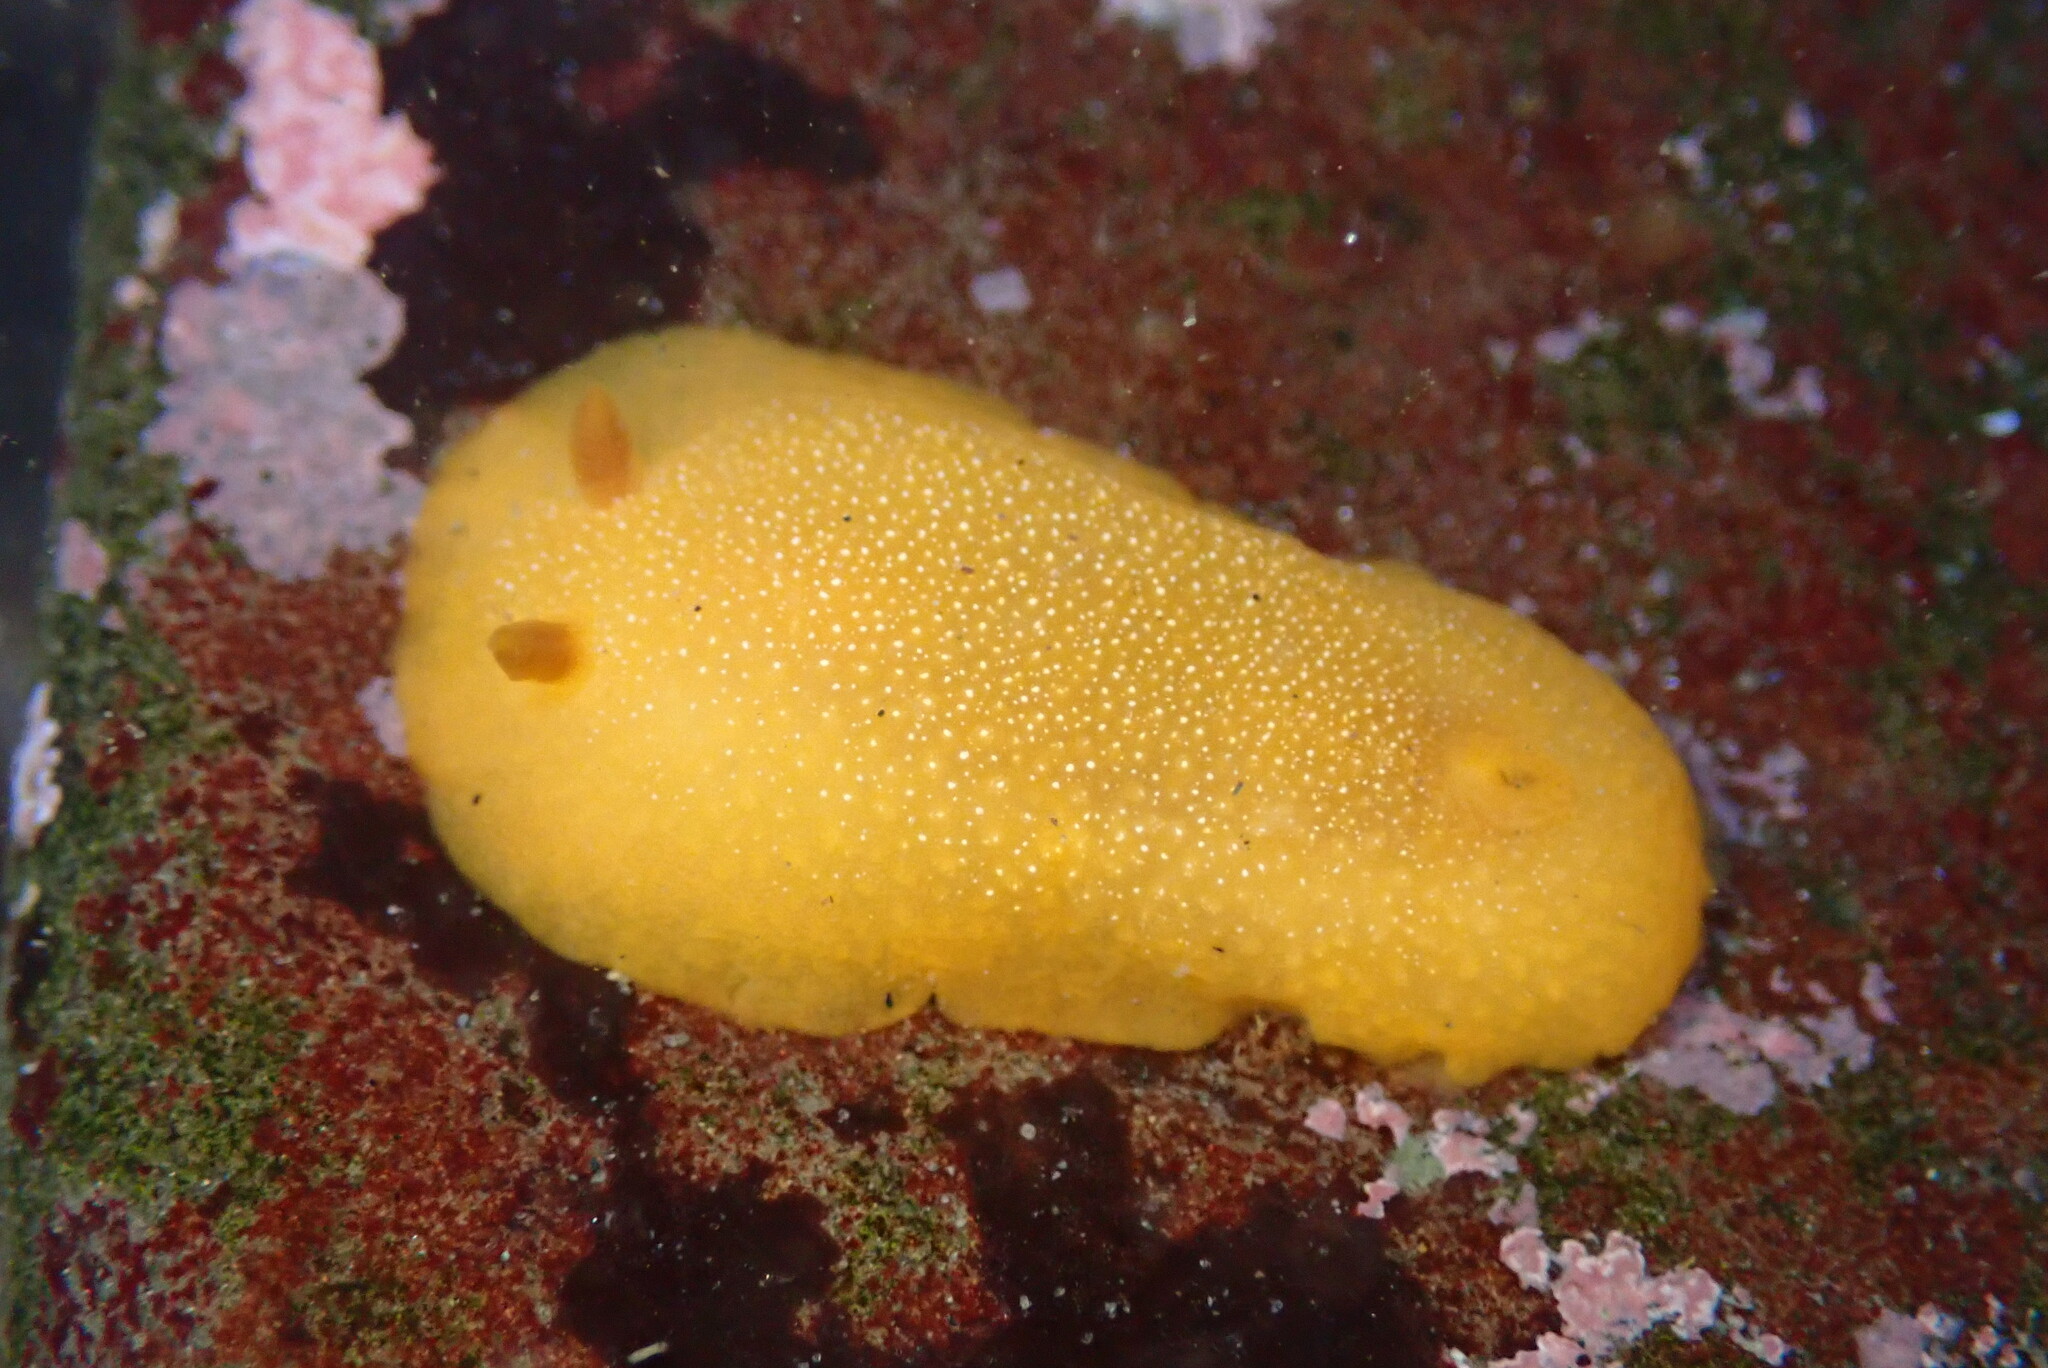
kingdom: Animalia
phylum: Mollusca
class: Gastropoda
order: Nudibranchia
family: Dendrodorididae
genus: Doriopsilla
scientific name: Doriopsilla albopunctata
